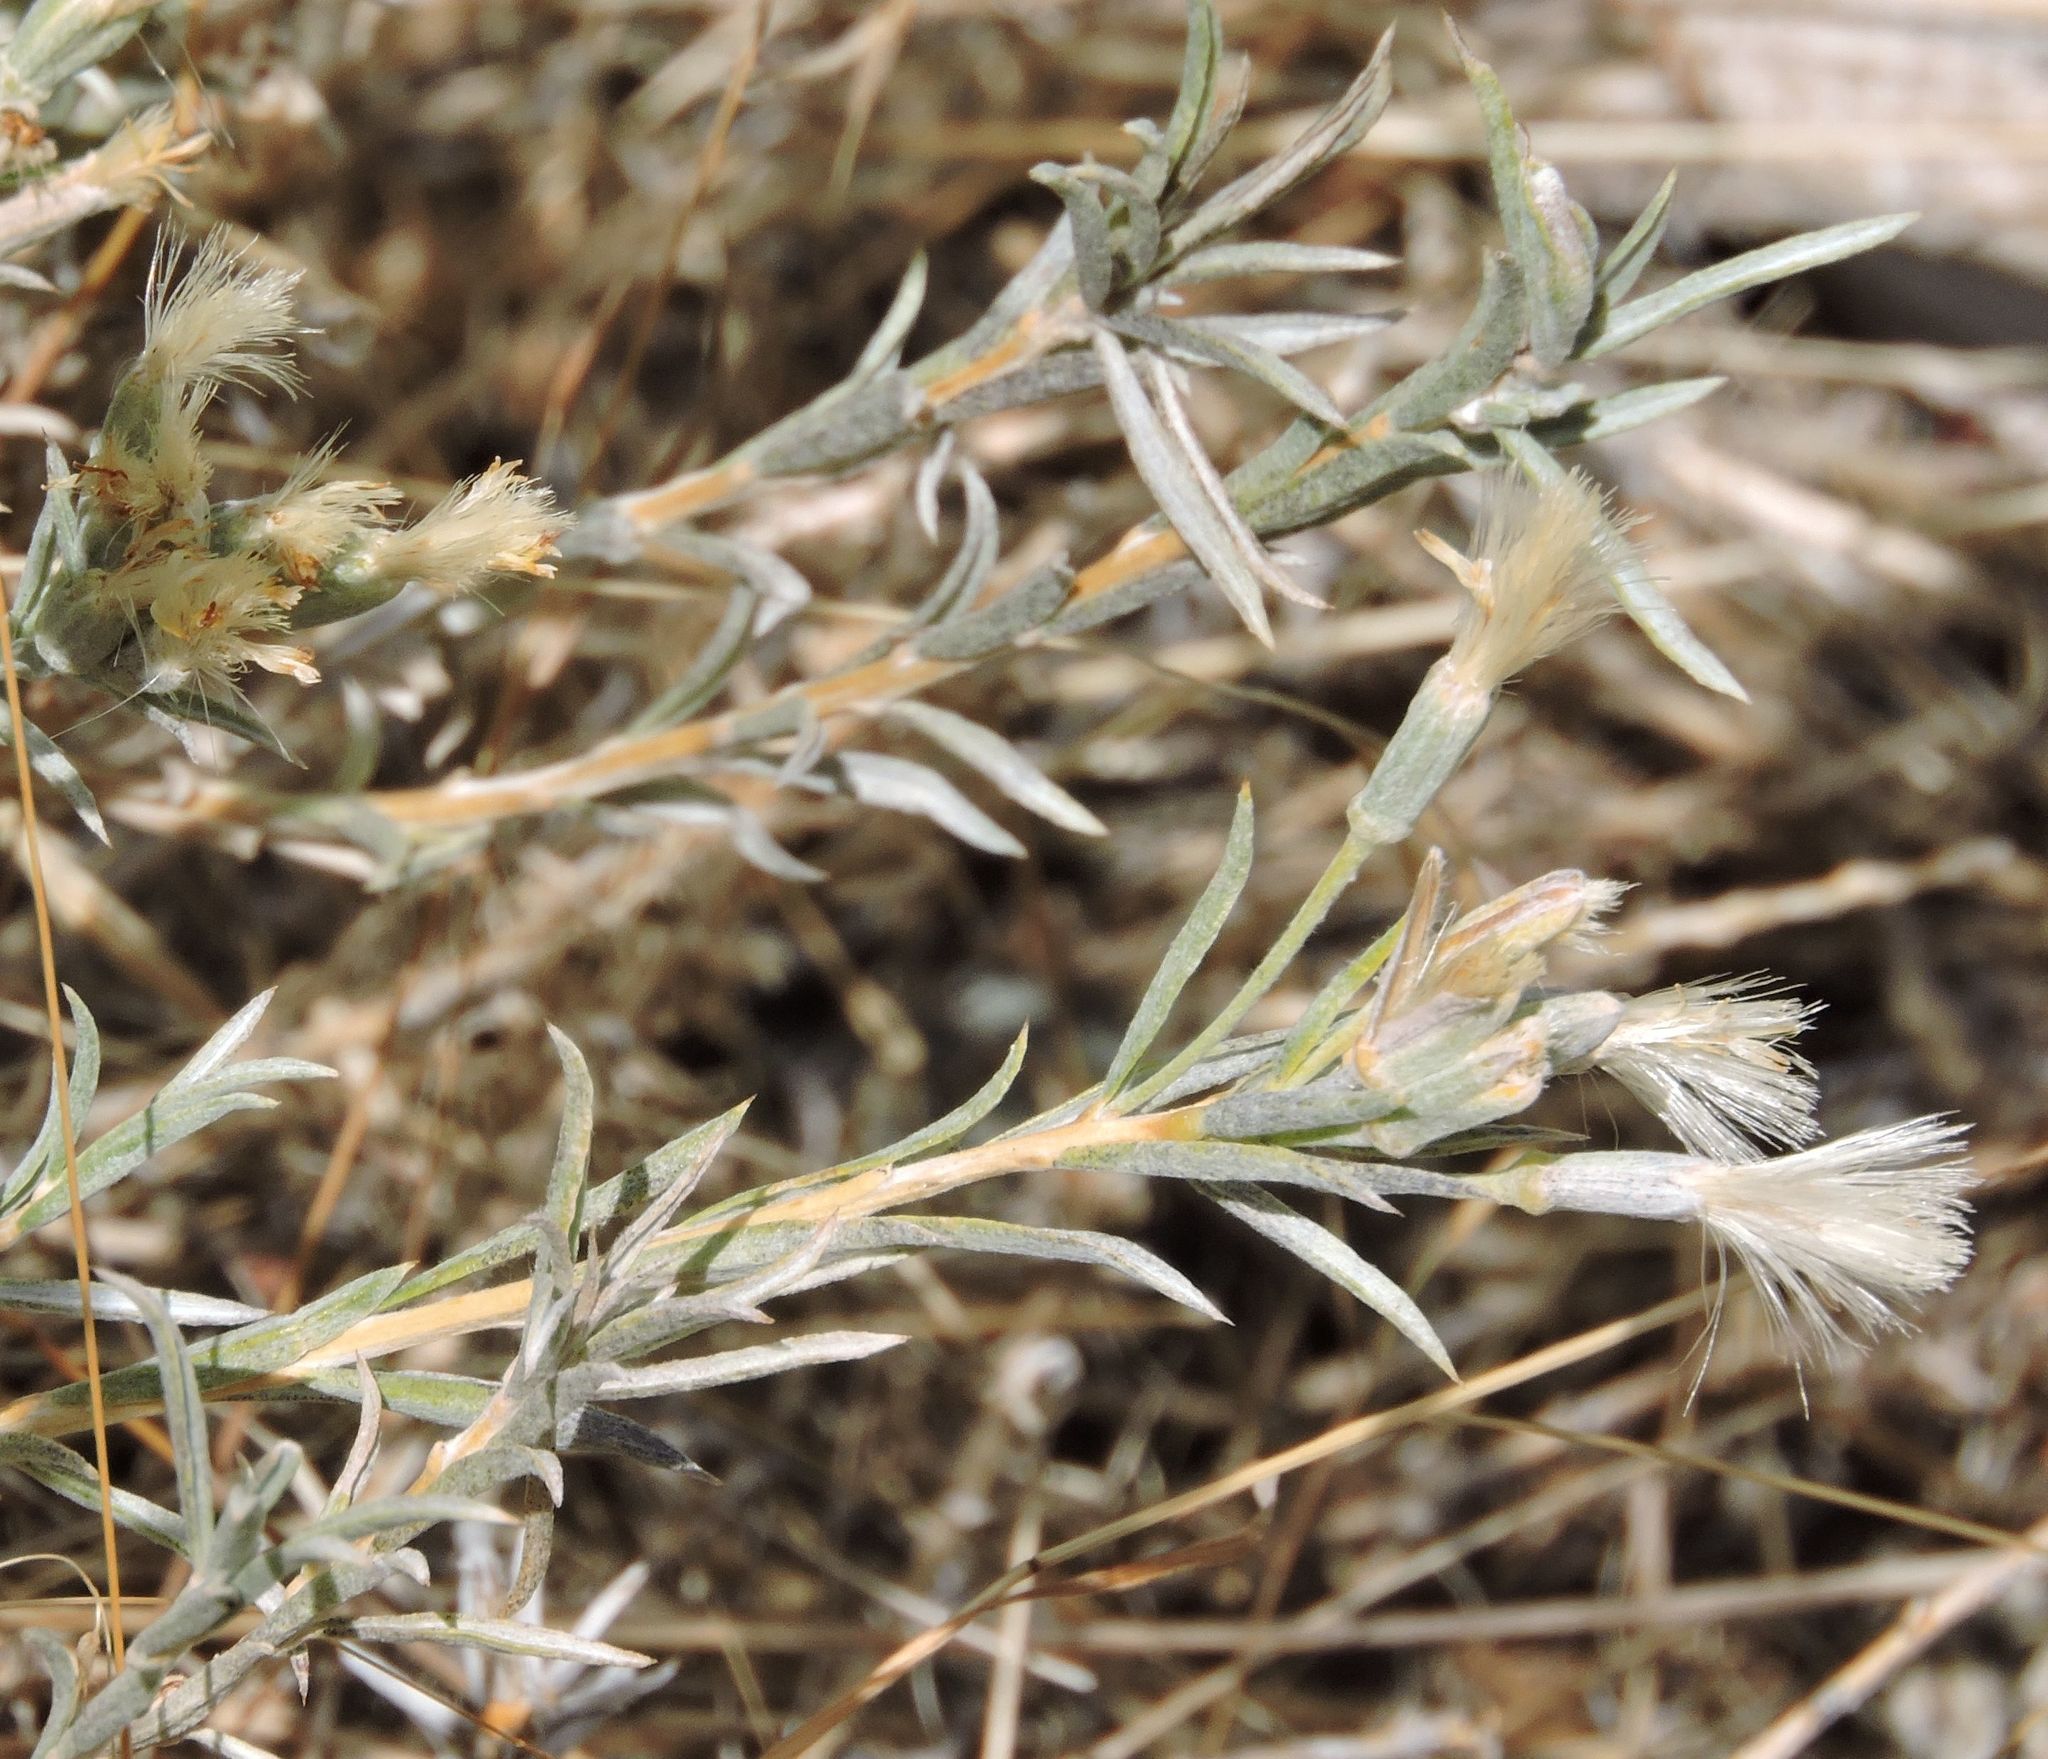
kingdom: Plantae
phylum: Tracheophyta
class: Magnoliopsida
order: Asterales
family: Asteraceae
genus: Tetradymia
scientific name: Tetradymia canescens
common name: Spineless horsebrush
